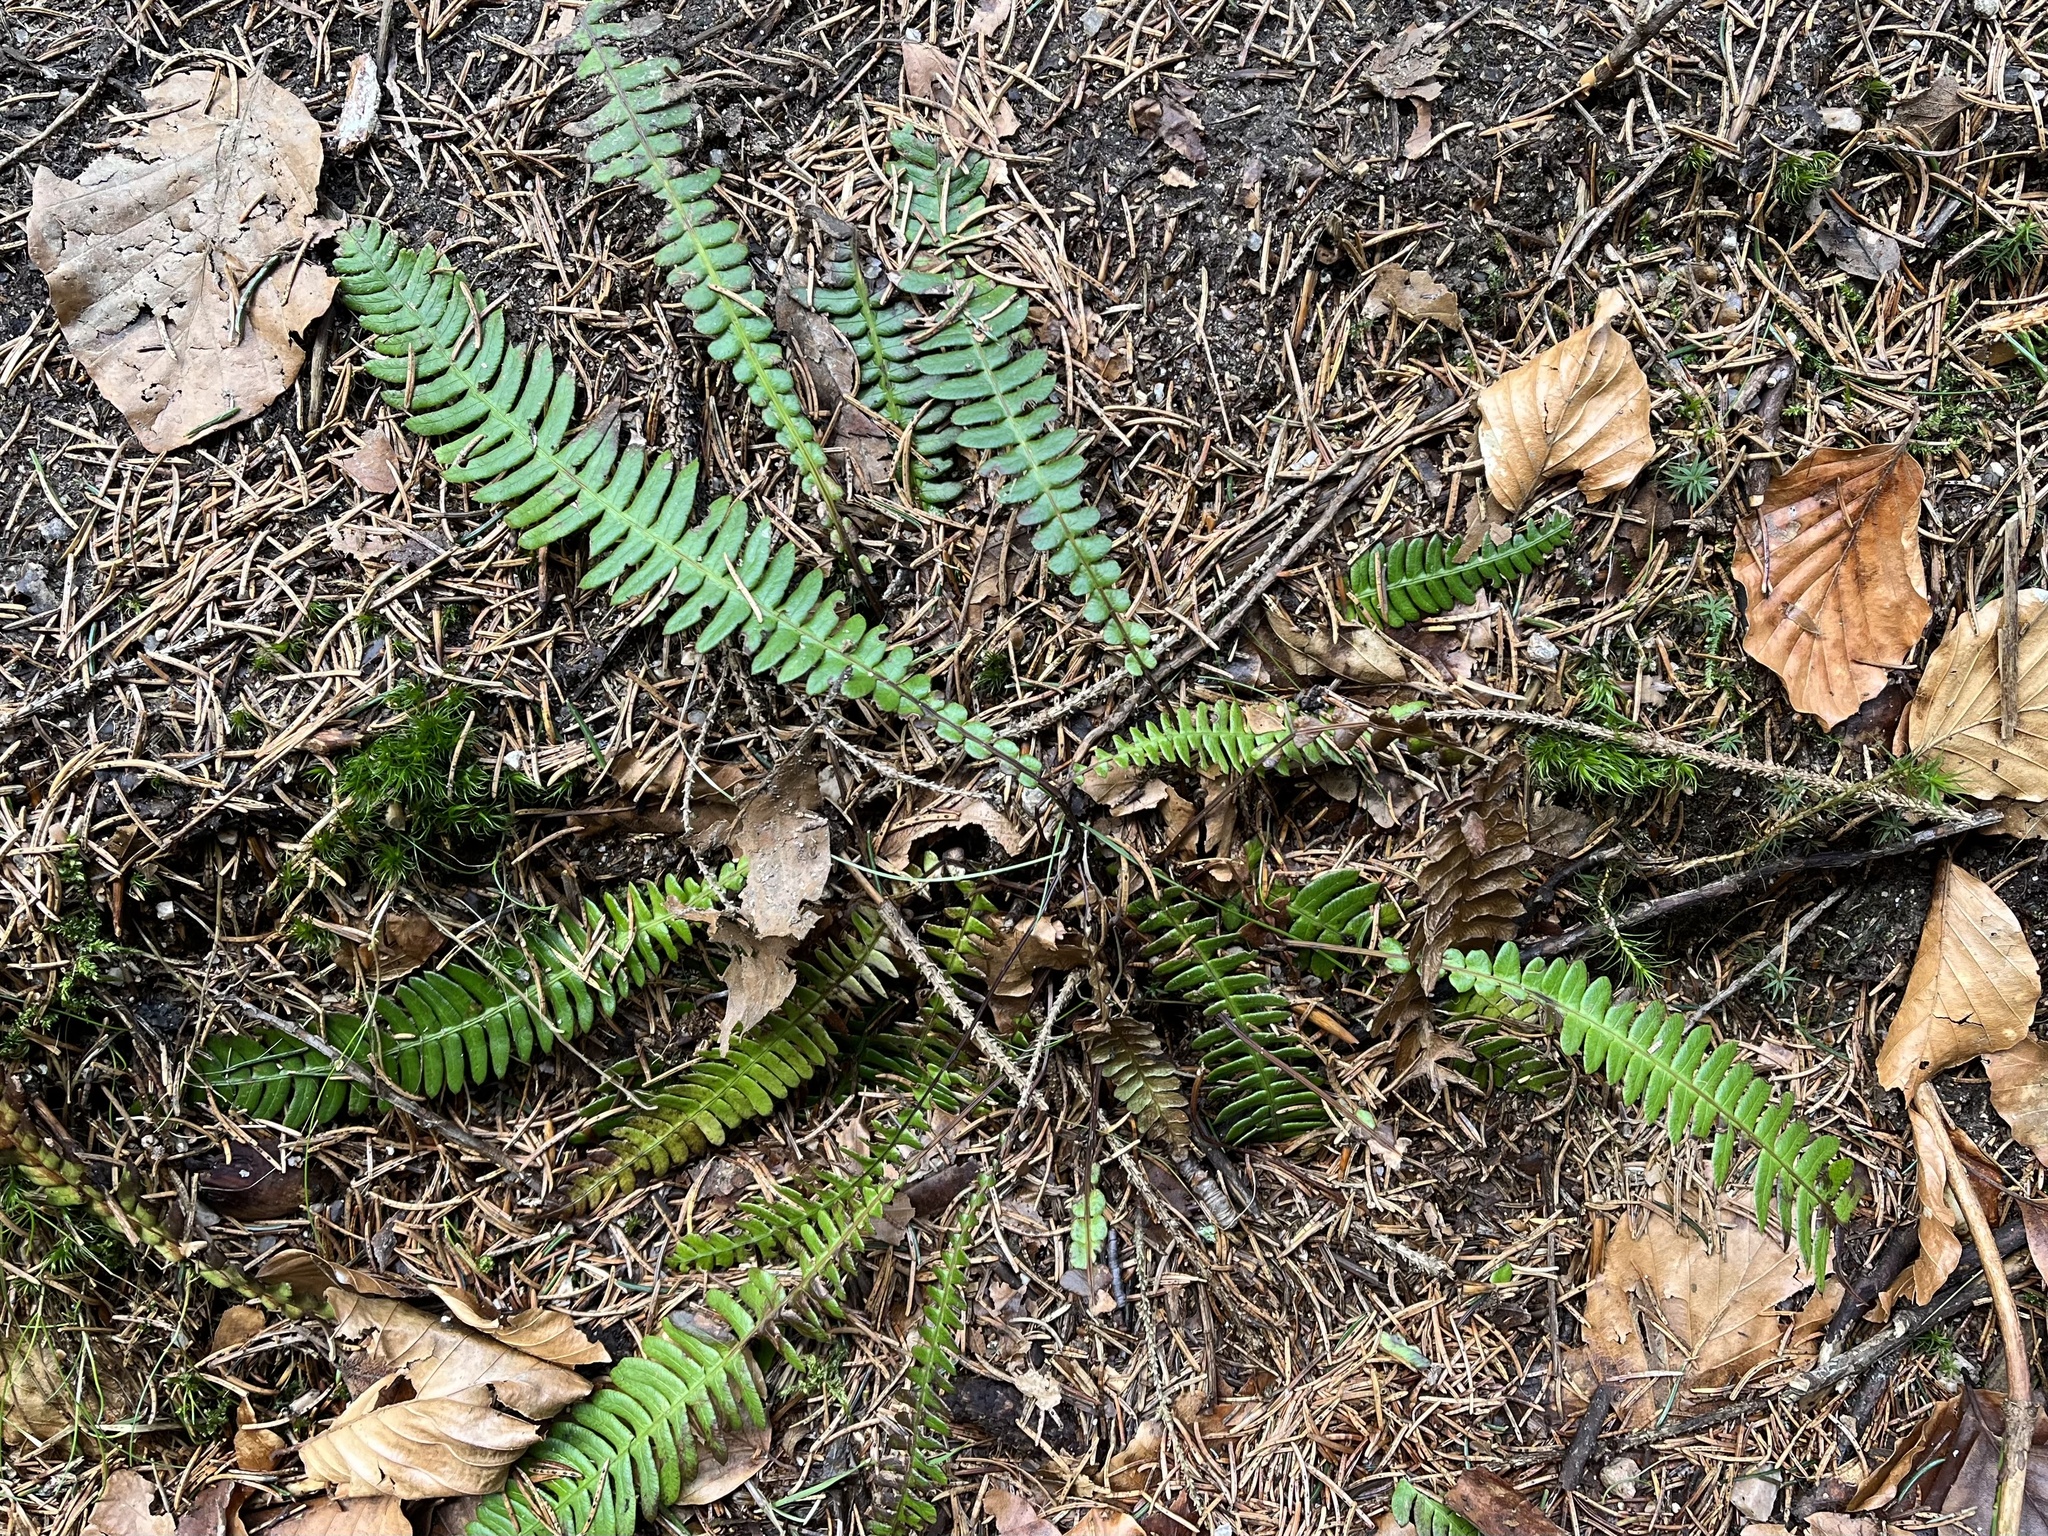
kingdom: Plantae
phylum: Tracheophyta
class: Polypodiopsida
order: Polypodiales
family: Blechnaceae
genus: Struthiopteris
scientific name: Struthiopteris spicant
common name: Deer fern
